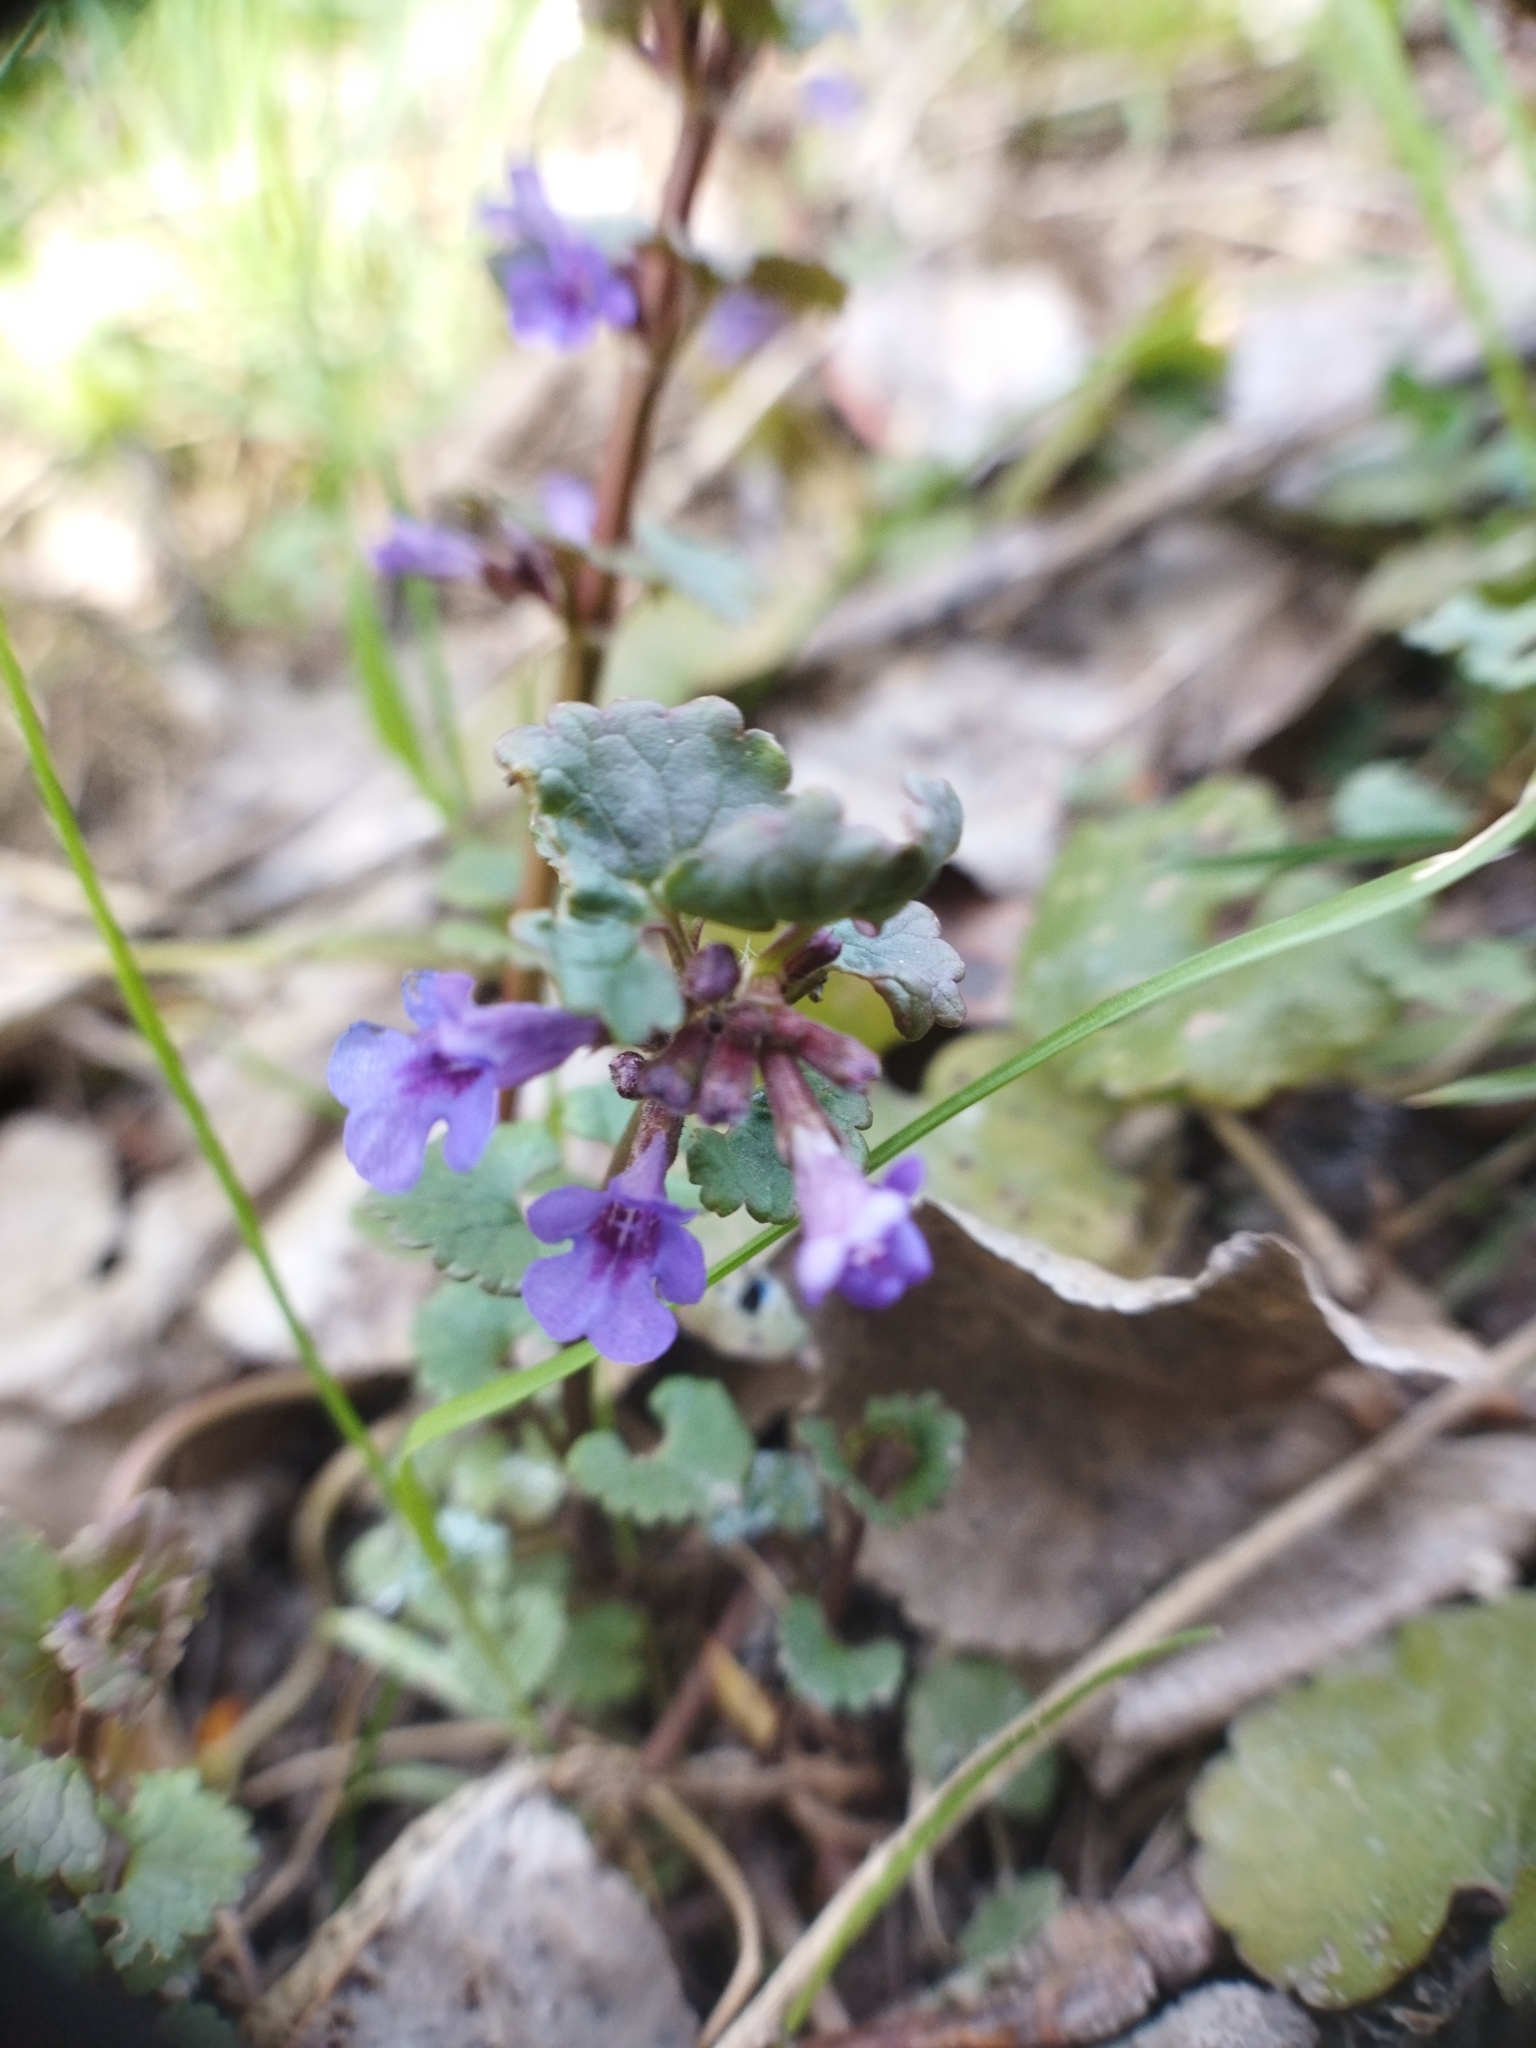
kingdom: Plantae
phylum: Tracheophyta
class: Magnoliopsida
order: Lamiales
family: Lamiaceae
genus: Glechoma
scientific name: Glechoma hederacea
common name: Ground ivy
